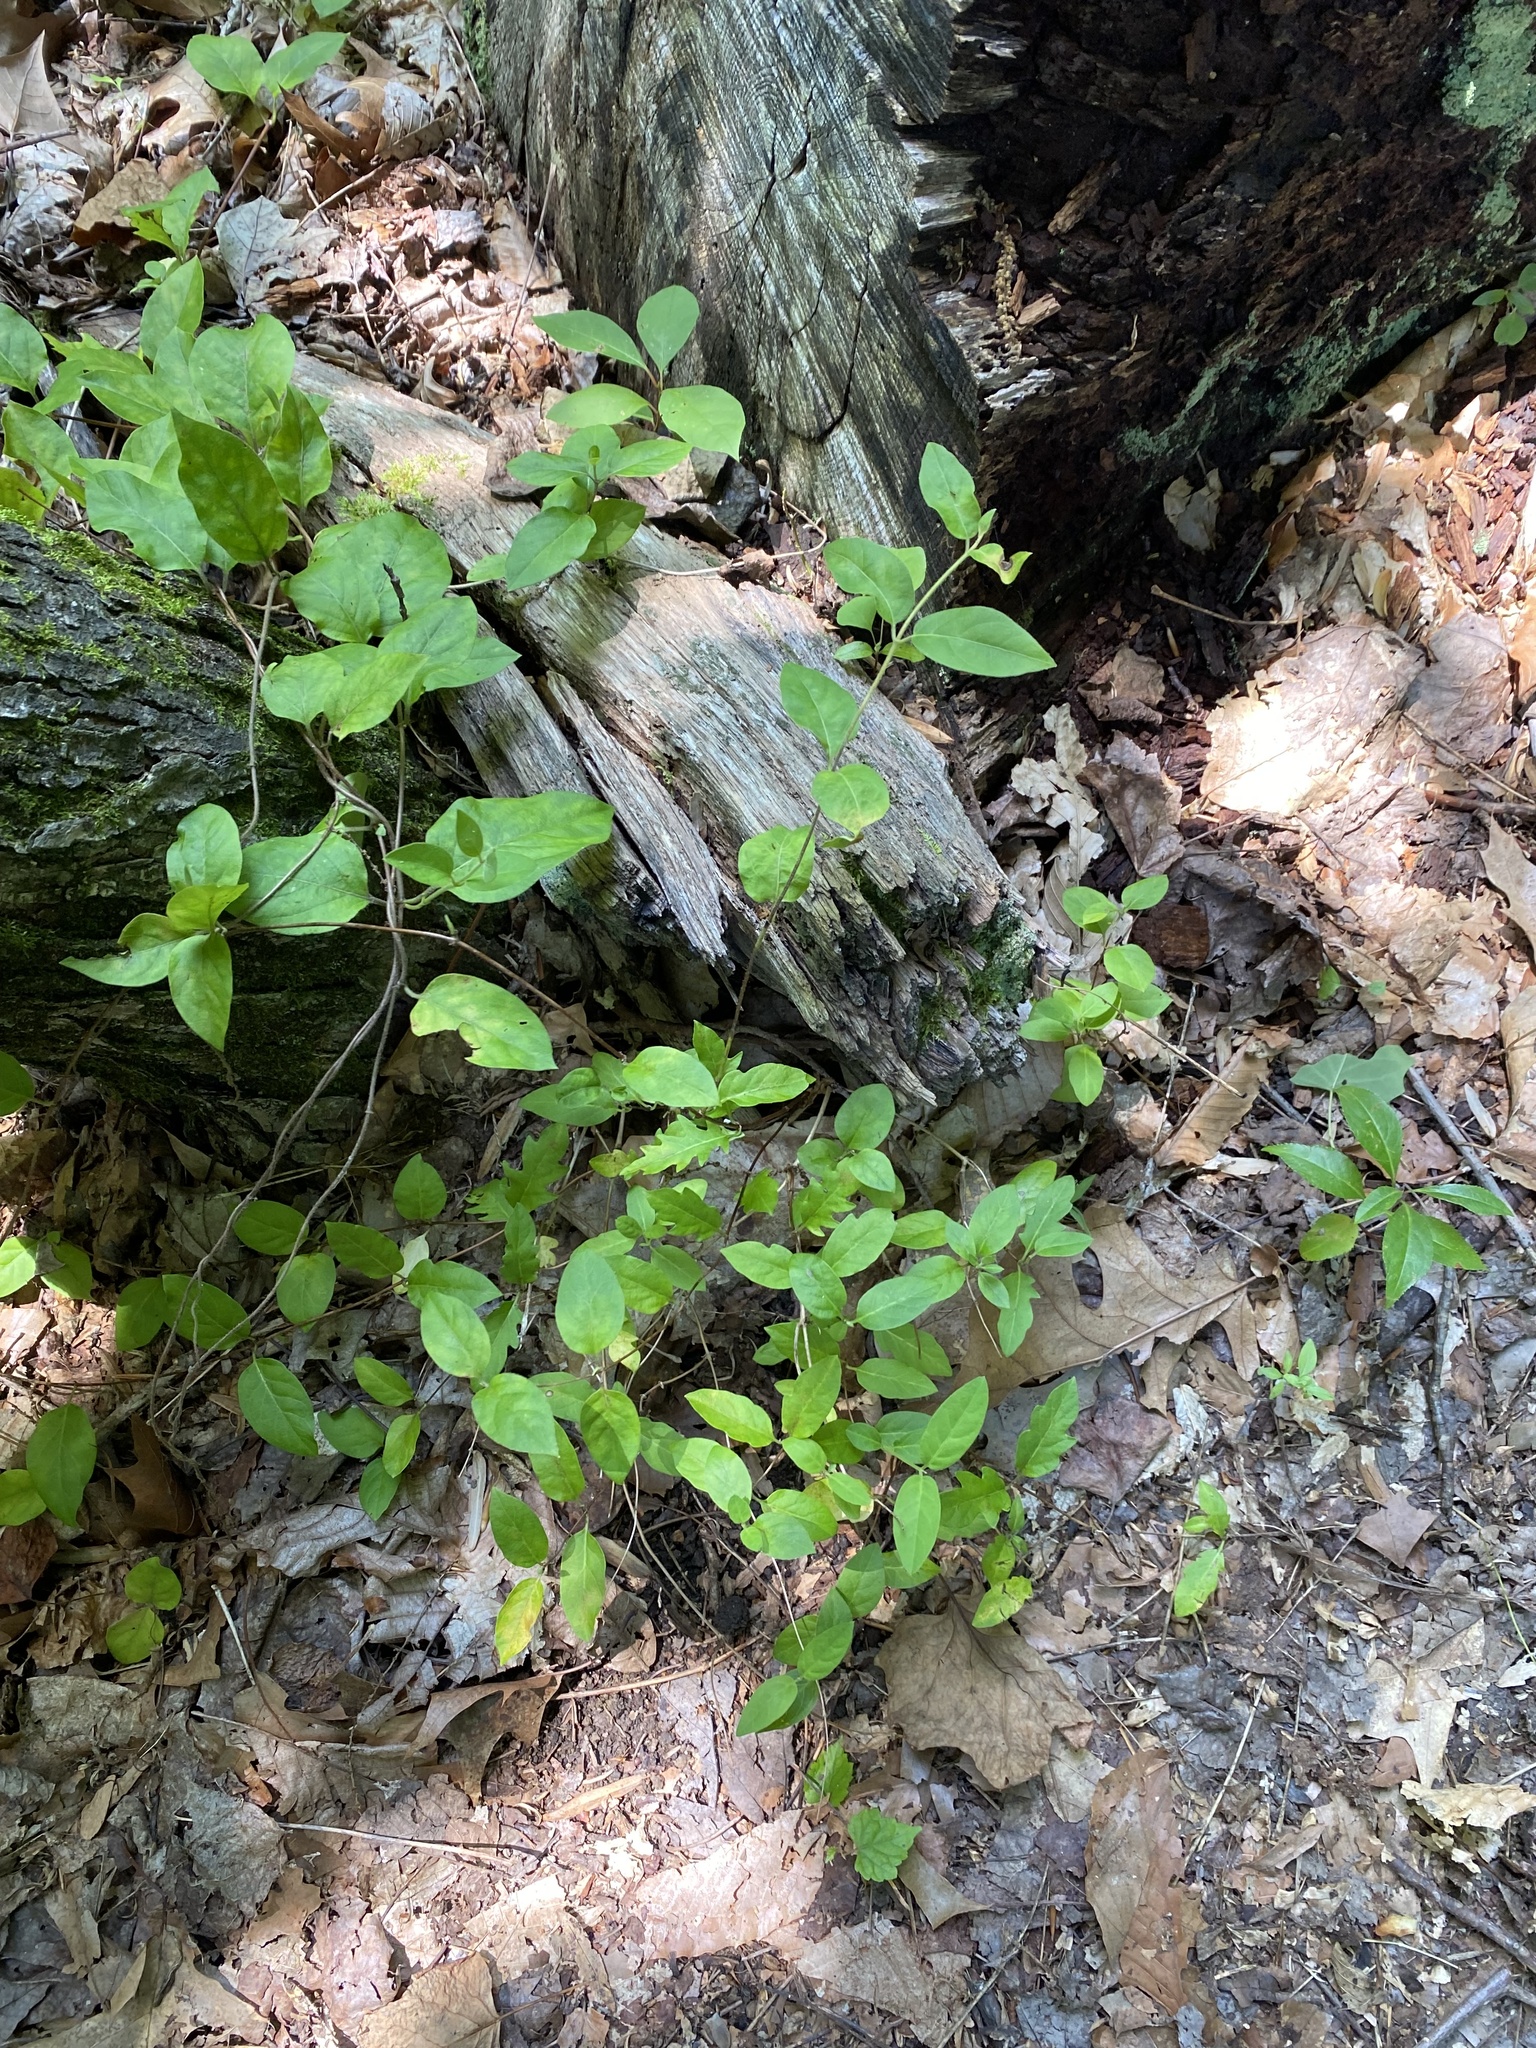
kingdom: Plantae
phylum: Tracheophyta
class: Magnoliopsida
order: Dipsacales
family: Caprifoliaceae
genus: Lonicera
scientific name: Lonicera japonica
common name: Japanese honeysuckle
